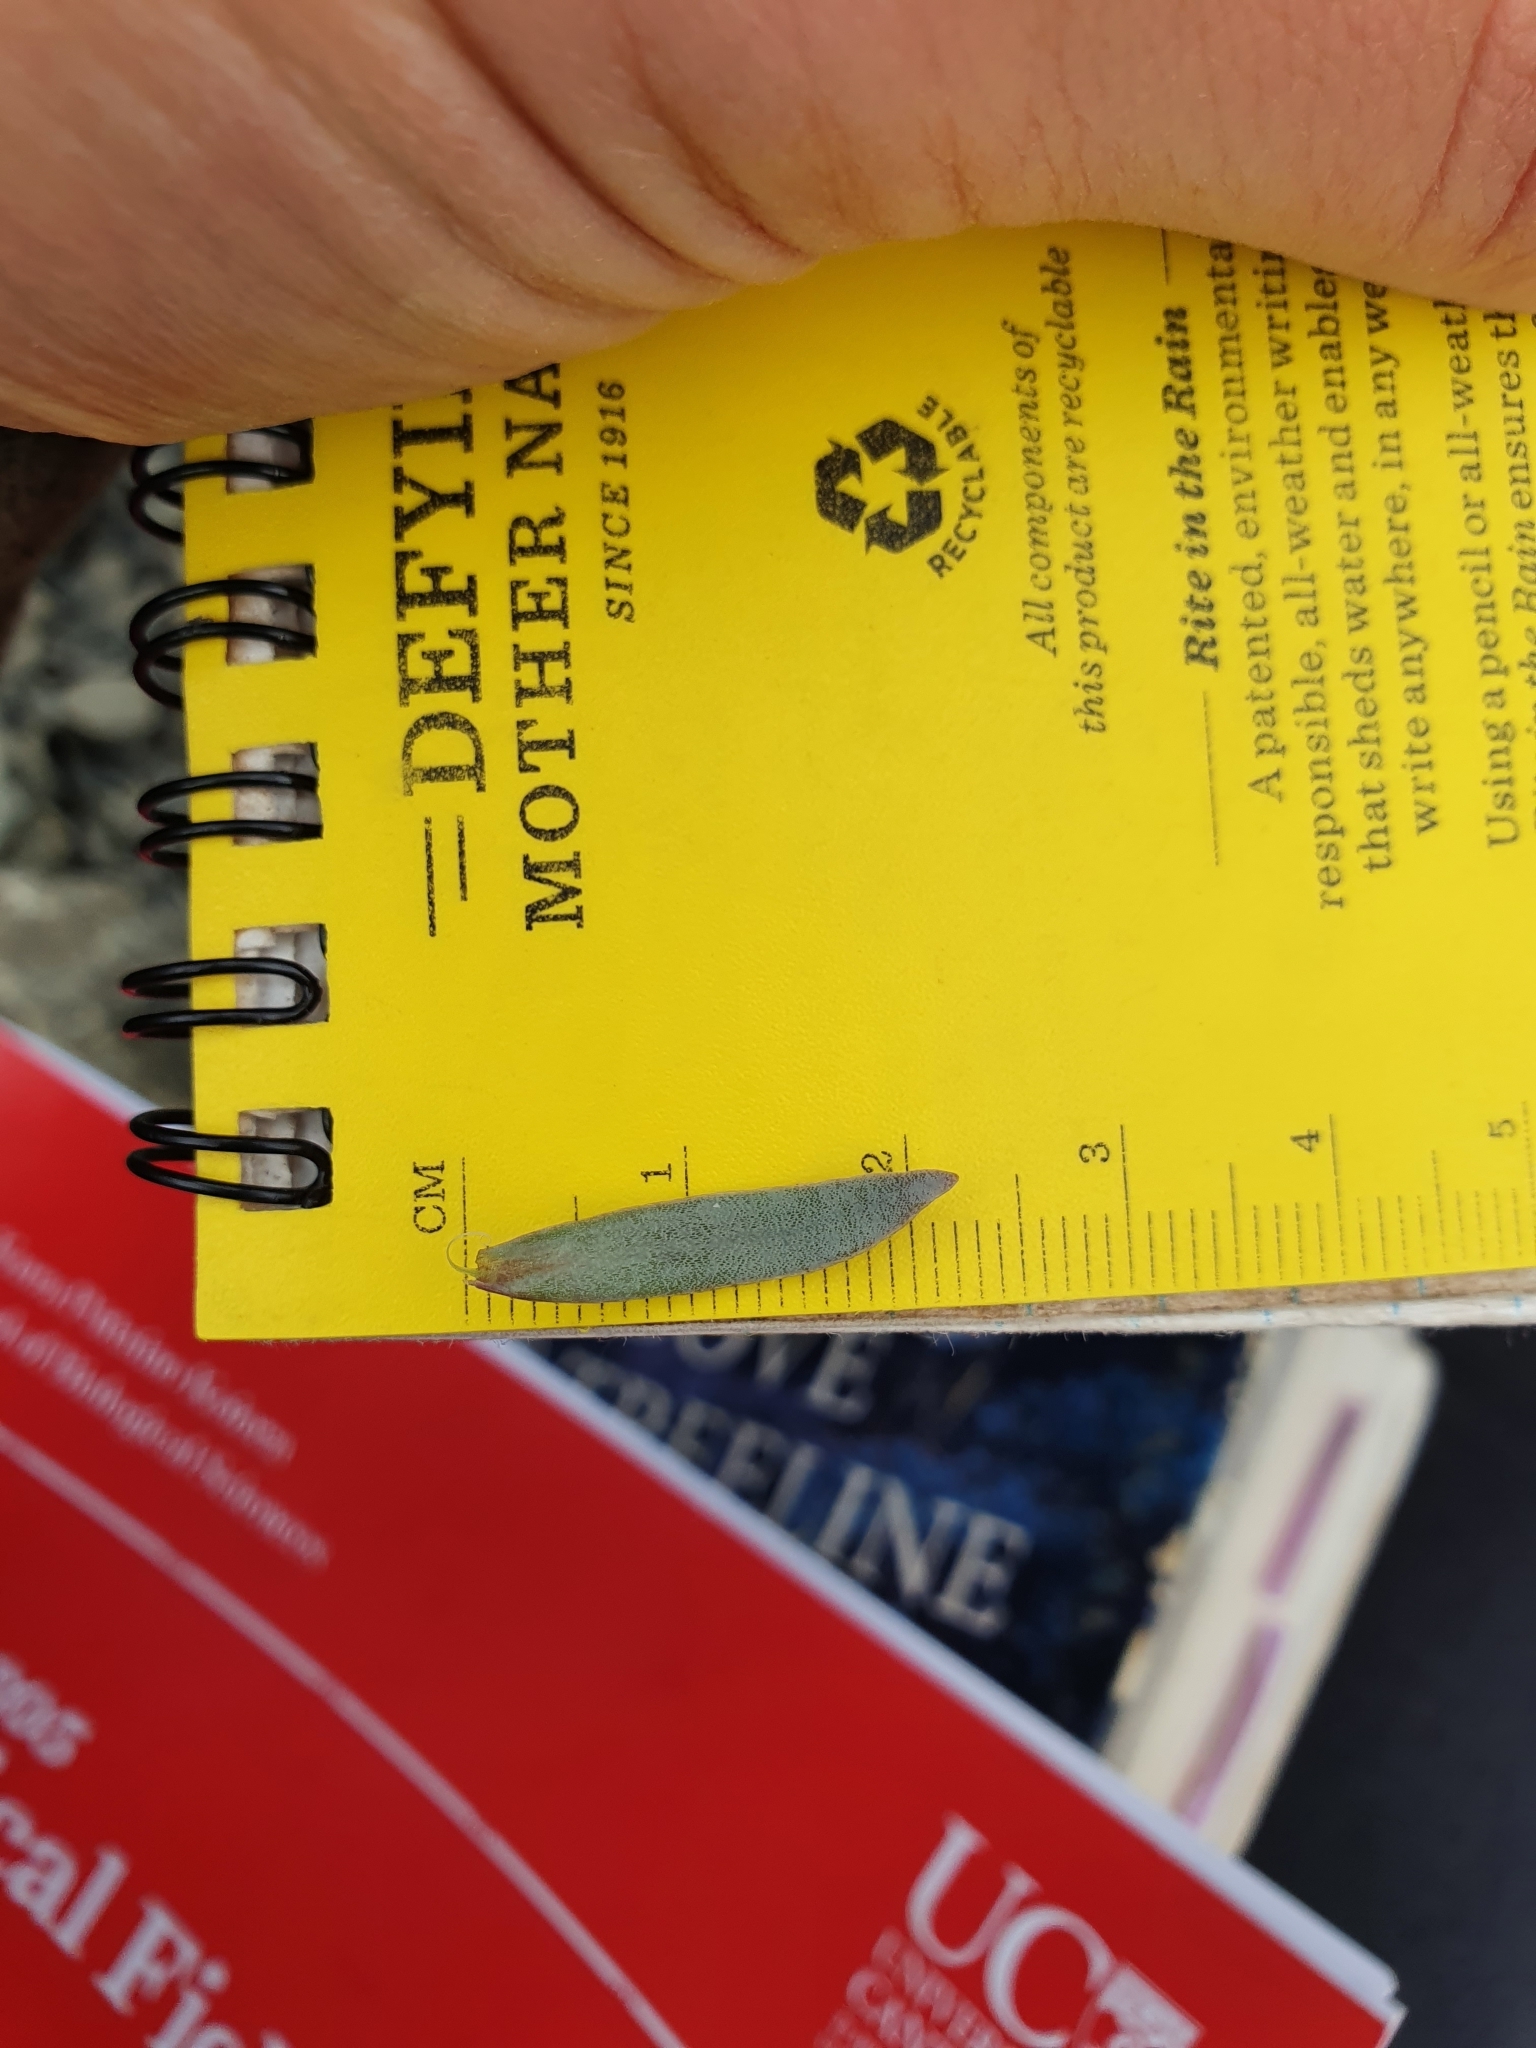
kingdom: Plantae
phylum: Tracheophyta
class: Magnoliopsida
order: Caryophyllales
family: Caryophyllaceae
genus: Stellaria
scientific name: Stellaria roughii
